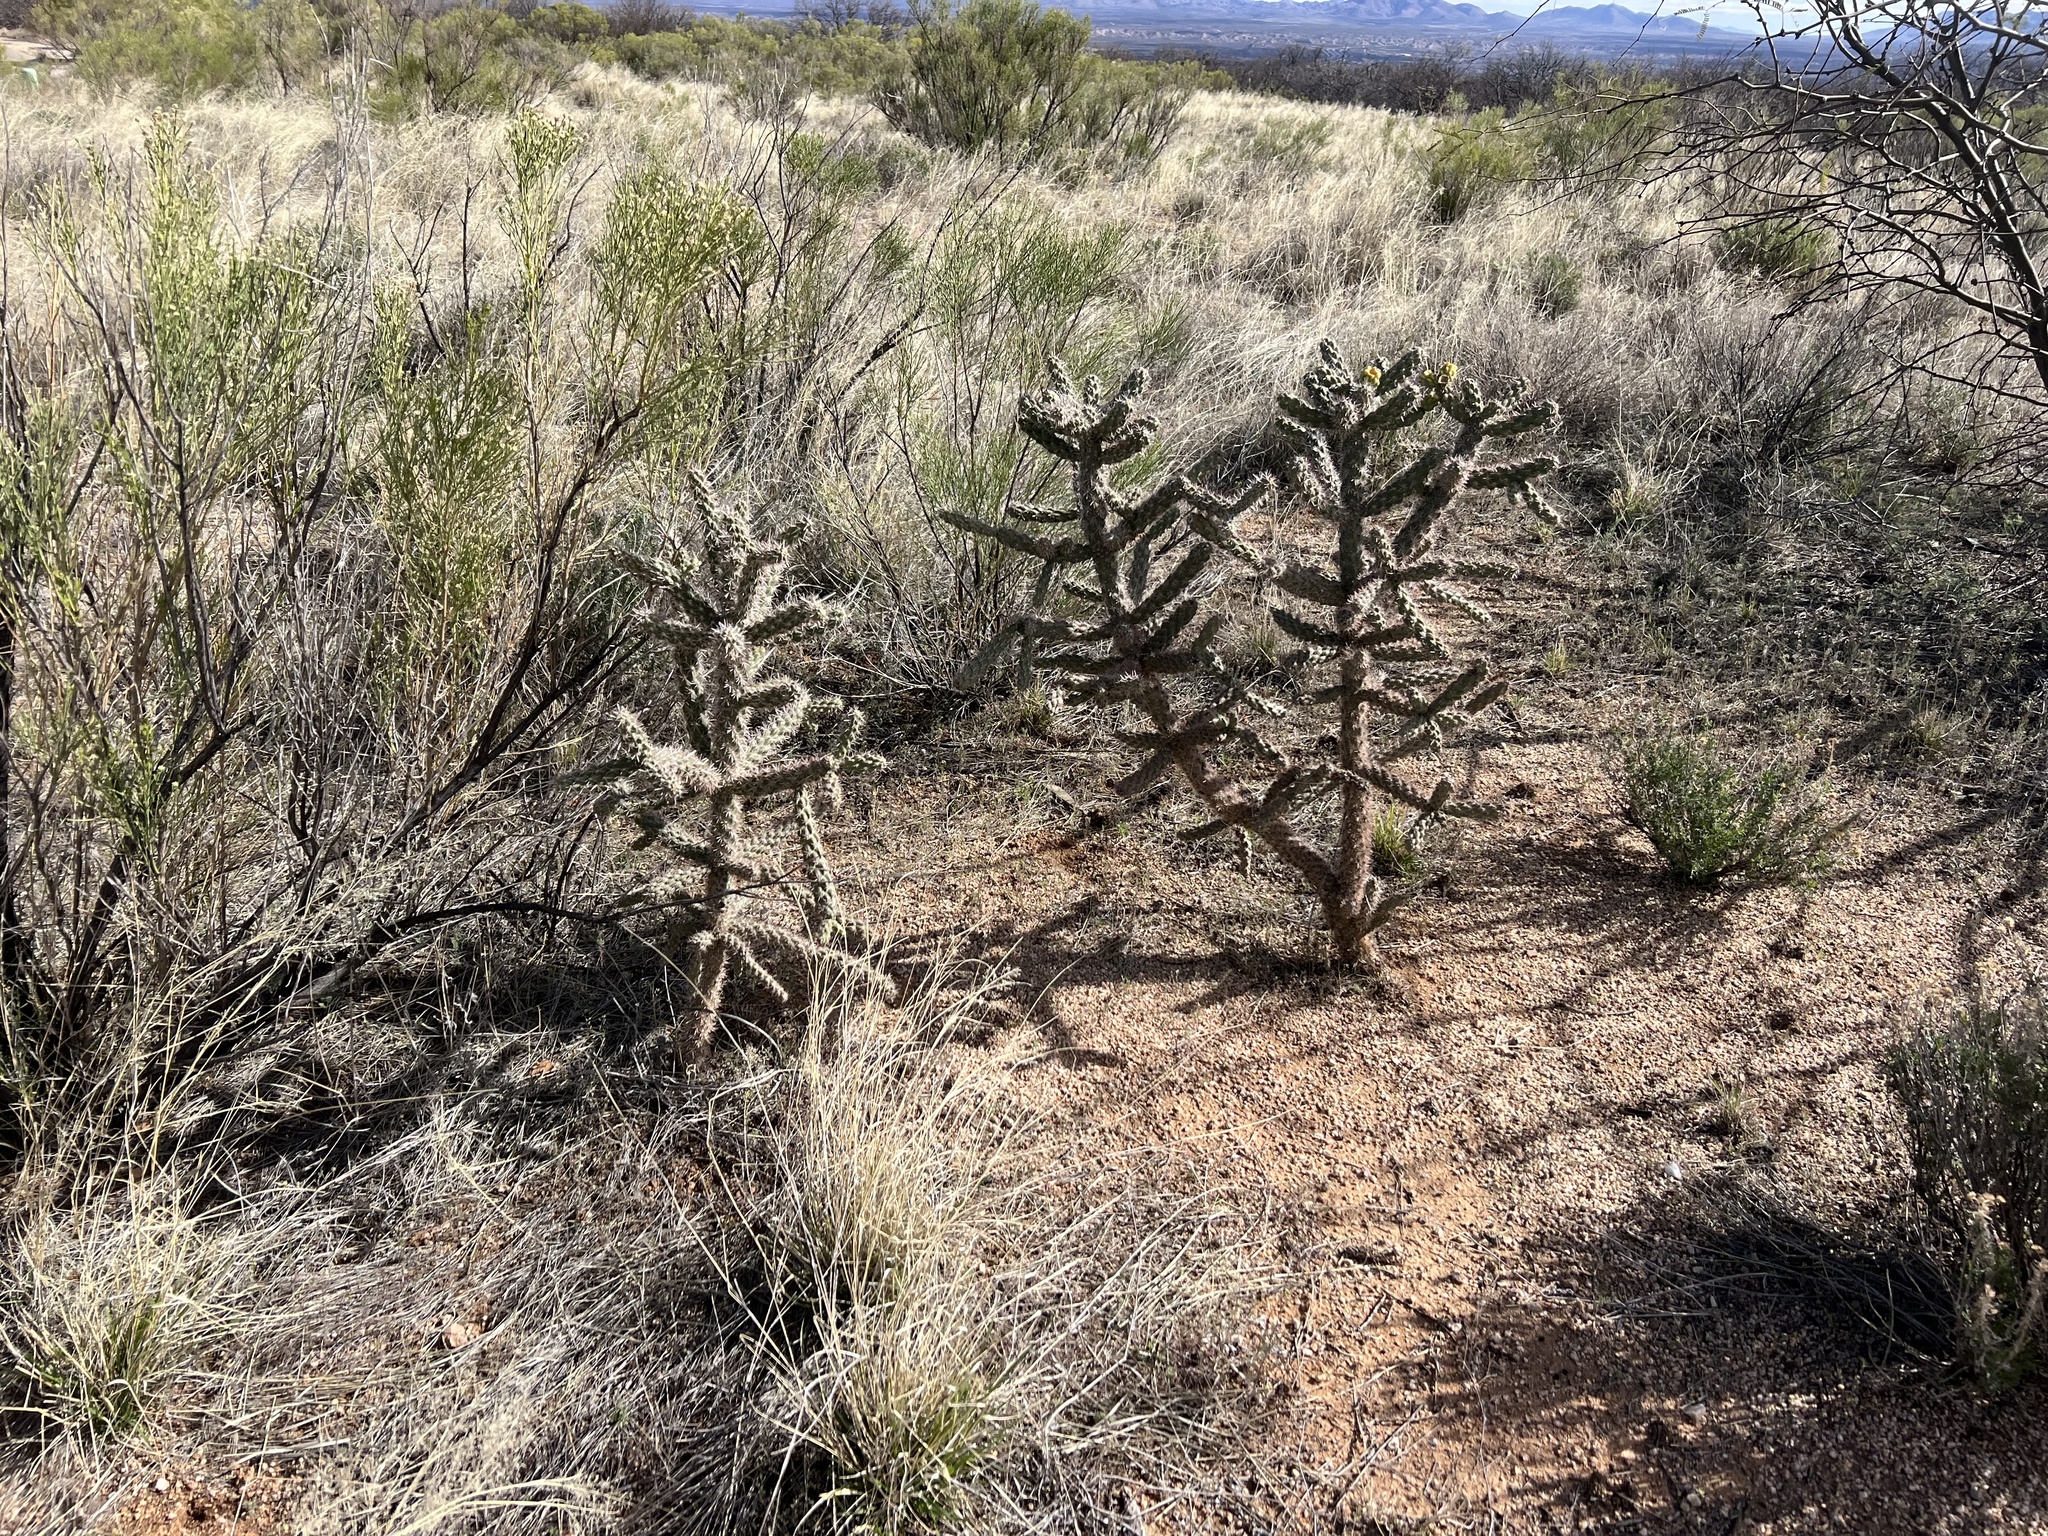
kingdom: Plantae
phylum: Tracheophyta
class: Magnoliopsida
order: Caryophyllales
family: Cactaceae
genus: Cylindropuntia
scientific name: Cylindropuntia imbricata
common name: Candelabrum cactus
